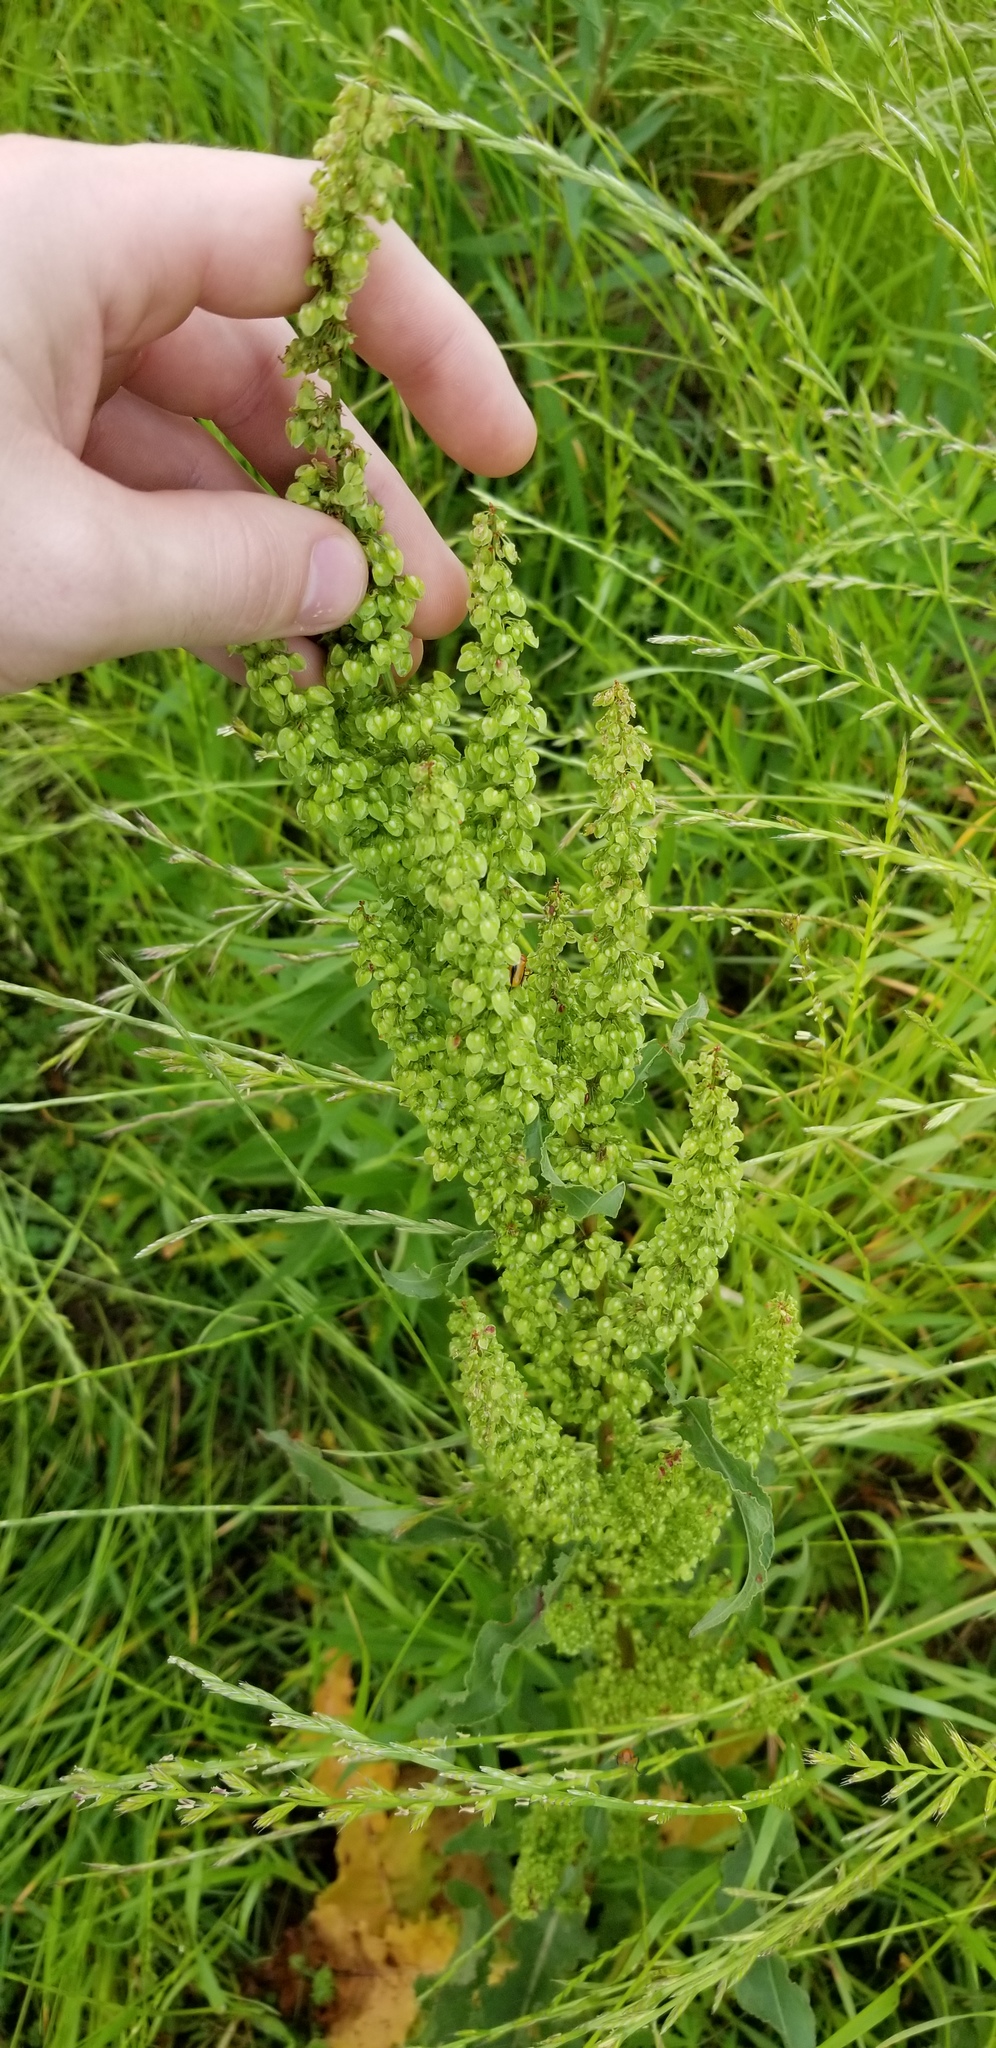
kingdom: Plantae
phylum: Tracheophyta
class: Magnoliopsida
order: Caryophyllales
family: Polygonaceae
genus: Rumex
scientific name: Rumex crispus
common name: Curled dock
